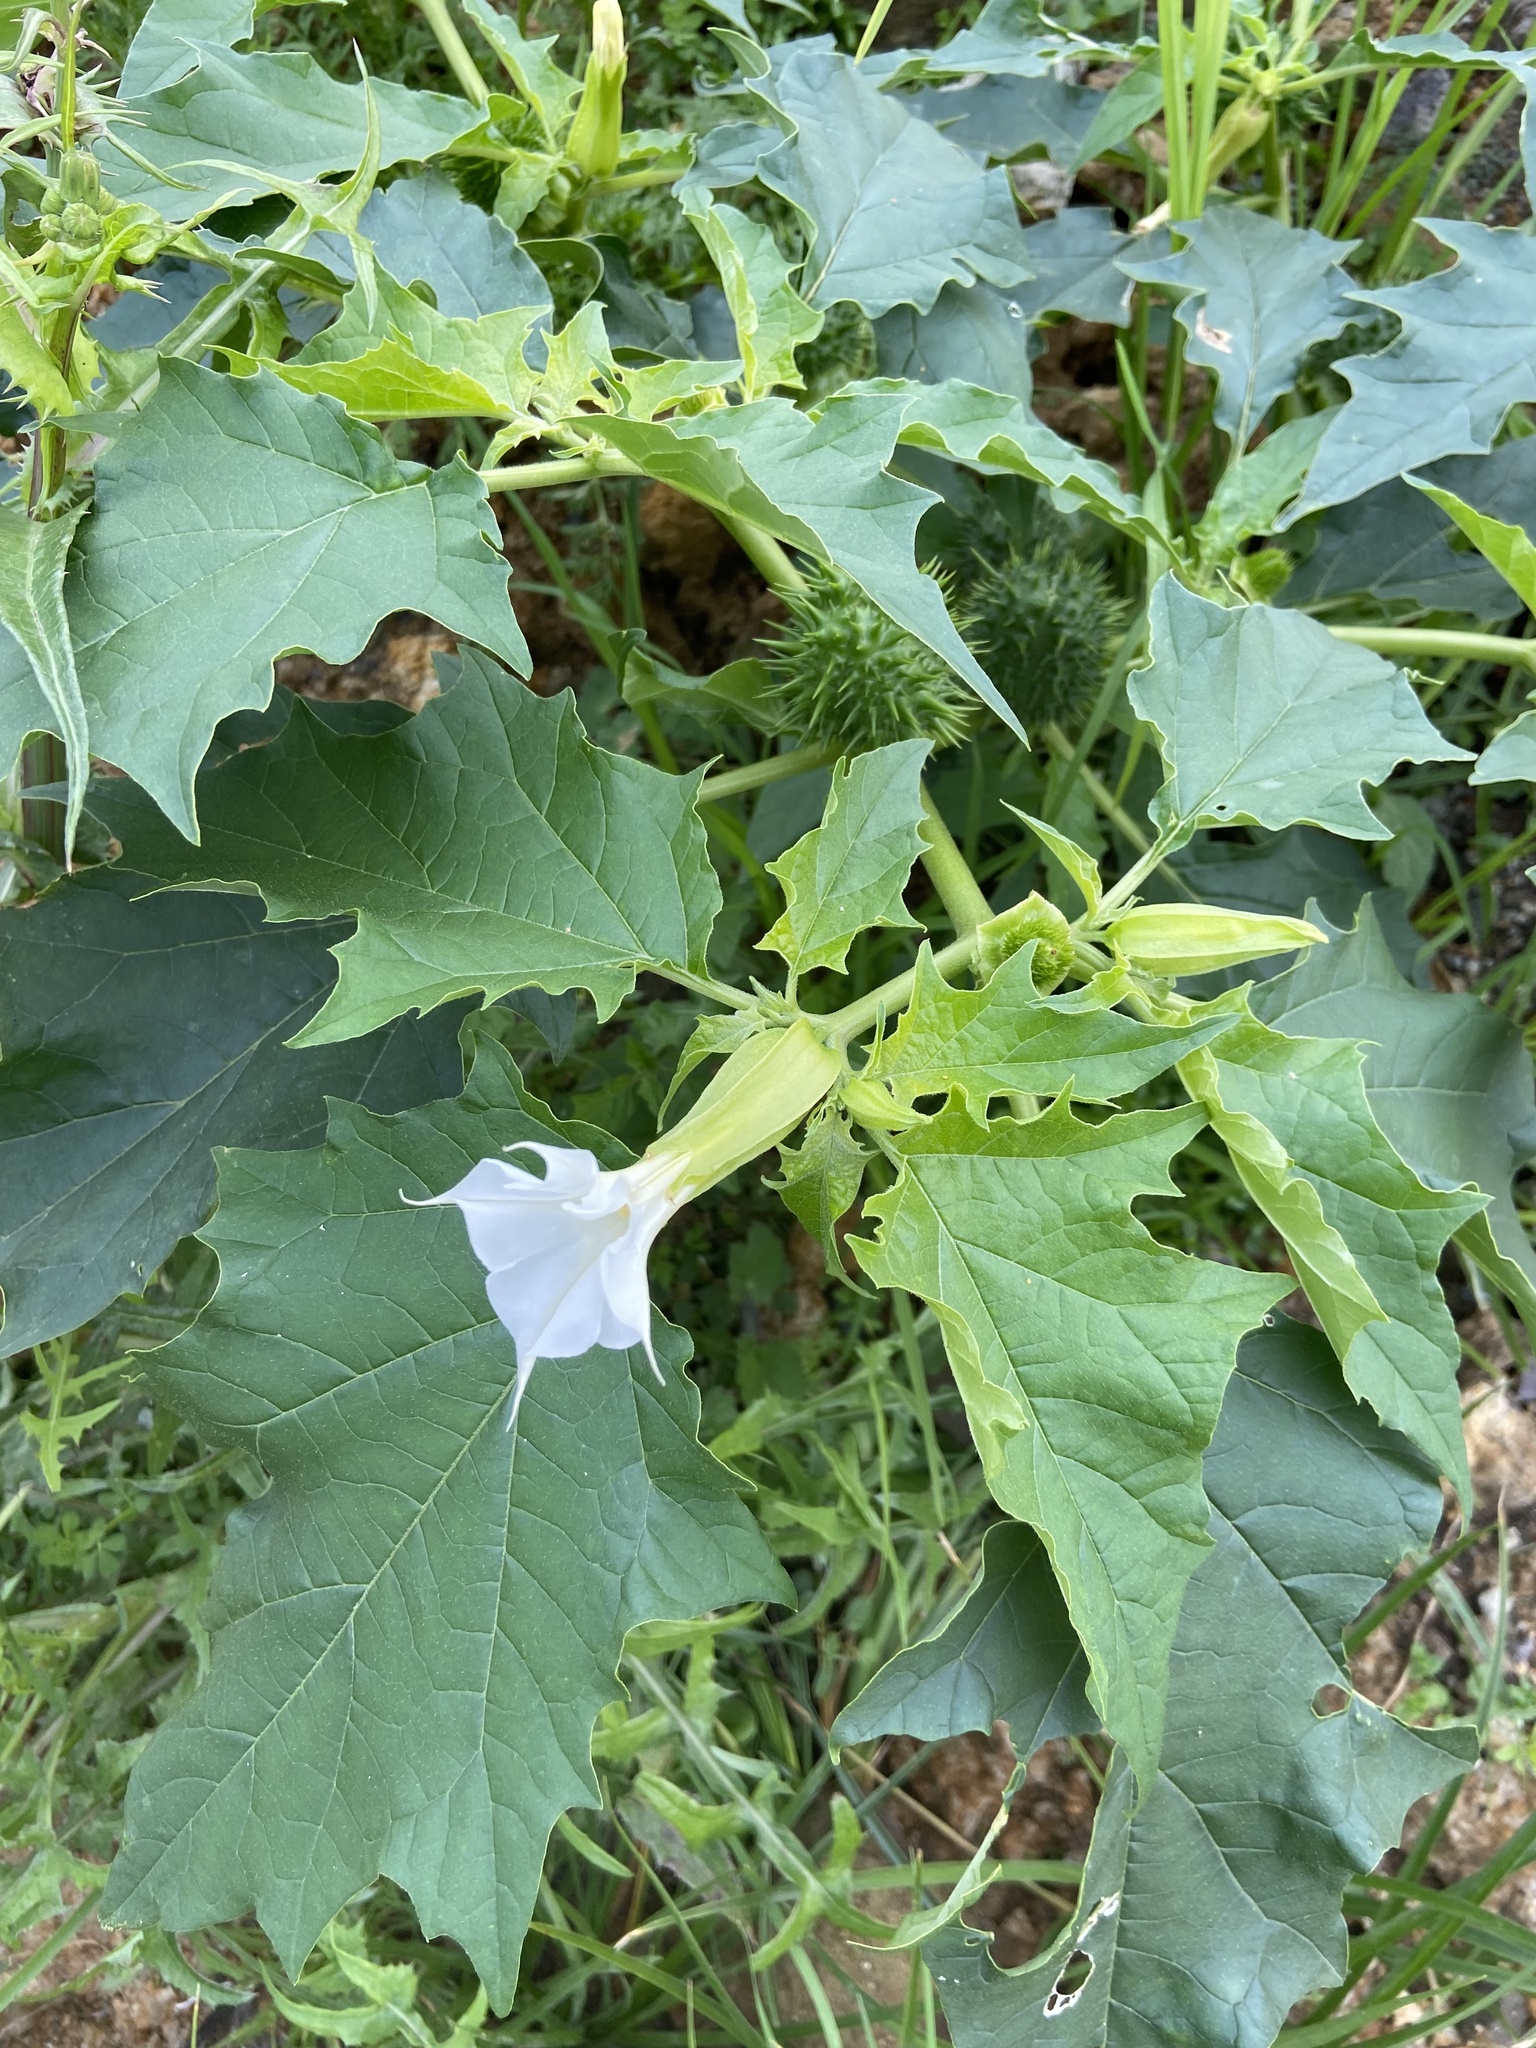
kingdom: Plantae
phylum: Tracheophyta
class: Magnoliopsida
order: Solanales
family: Solanaceae
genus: Datura
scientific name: Datura stramonium
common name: Thorn-apple
